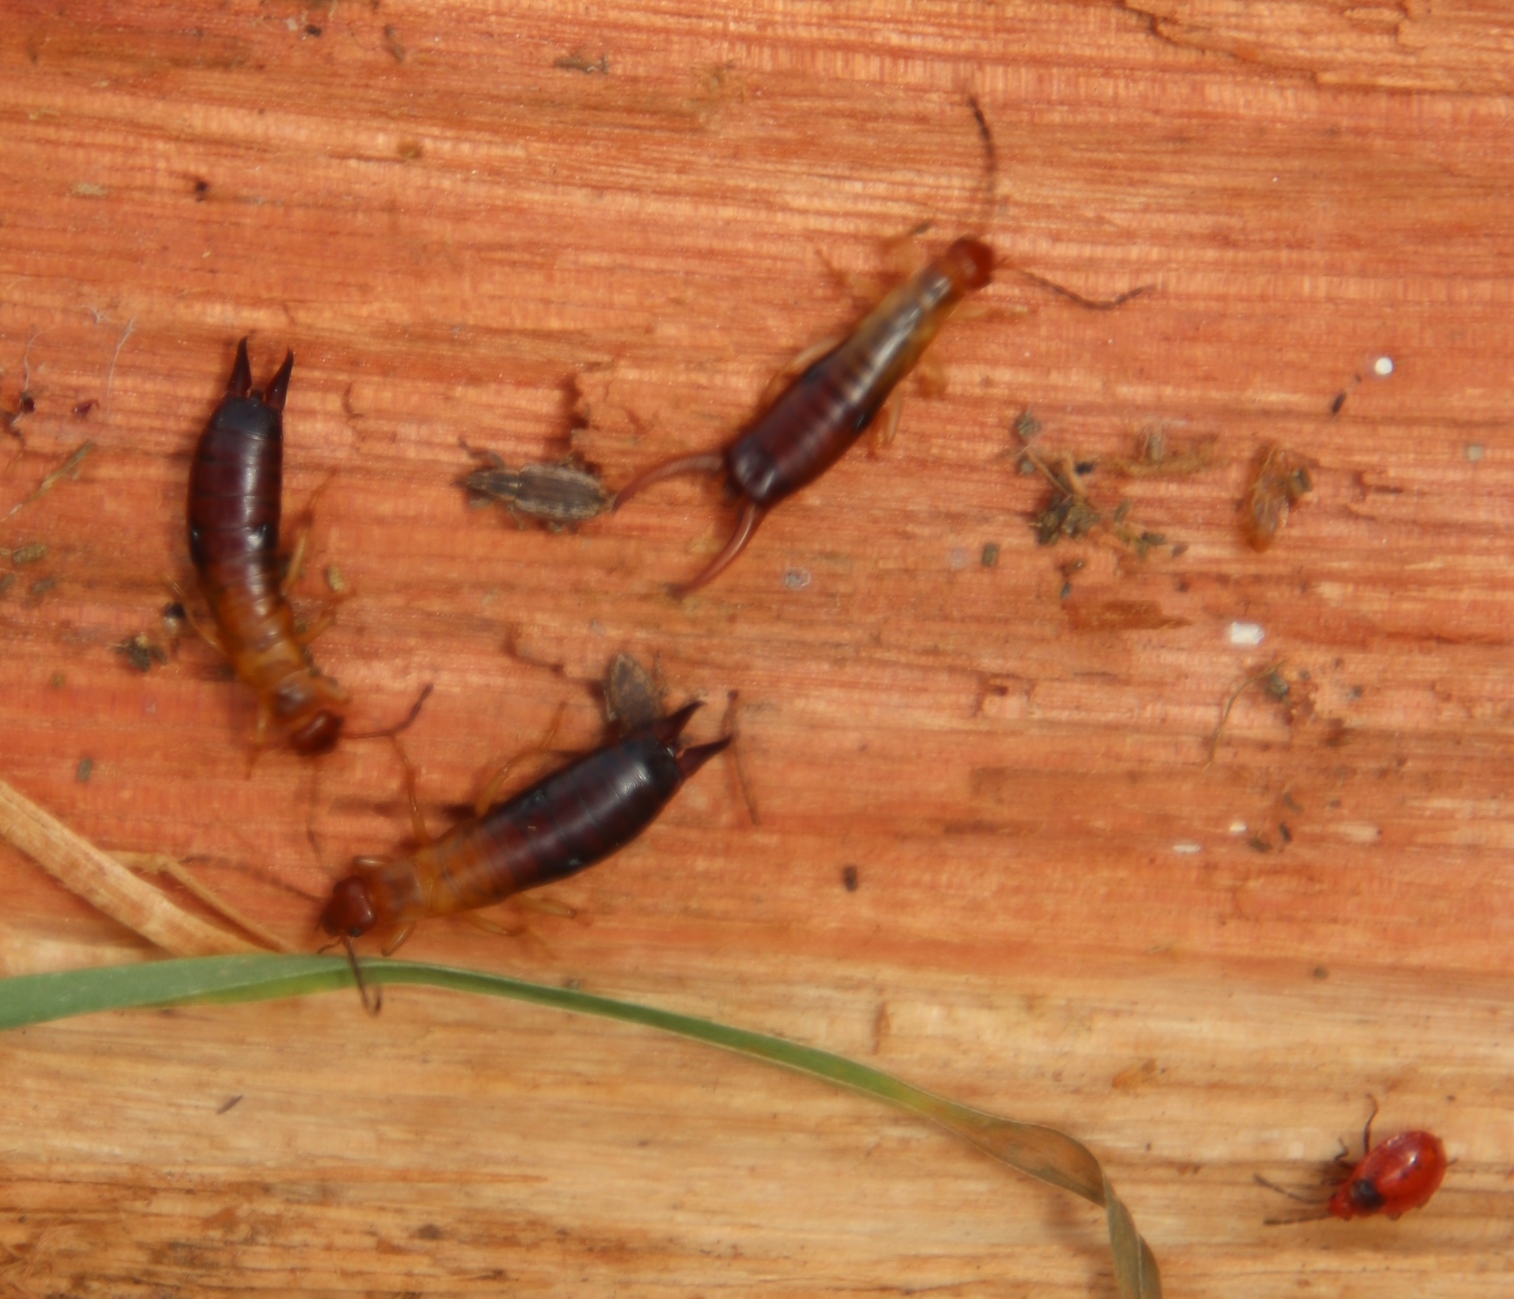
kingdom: Animalia
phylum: Arthropoda
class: Insecta
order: Dermaptera
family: Forficulidae
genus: Proforficula
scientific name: Proforficula promontorii
